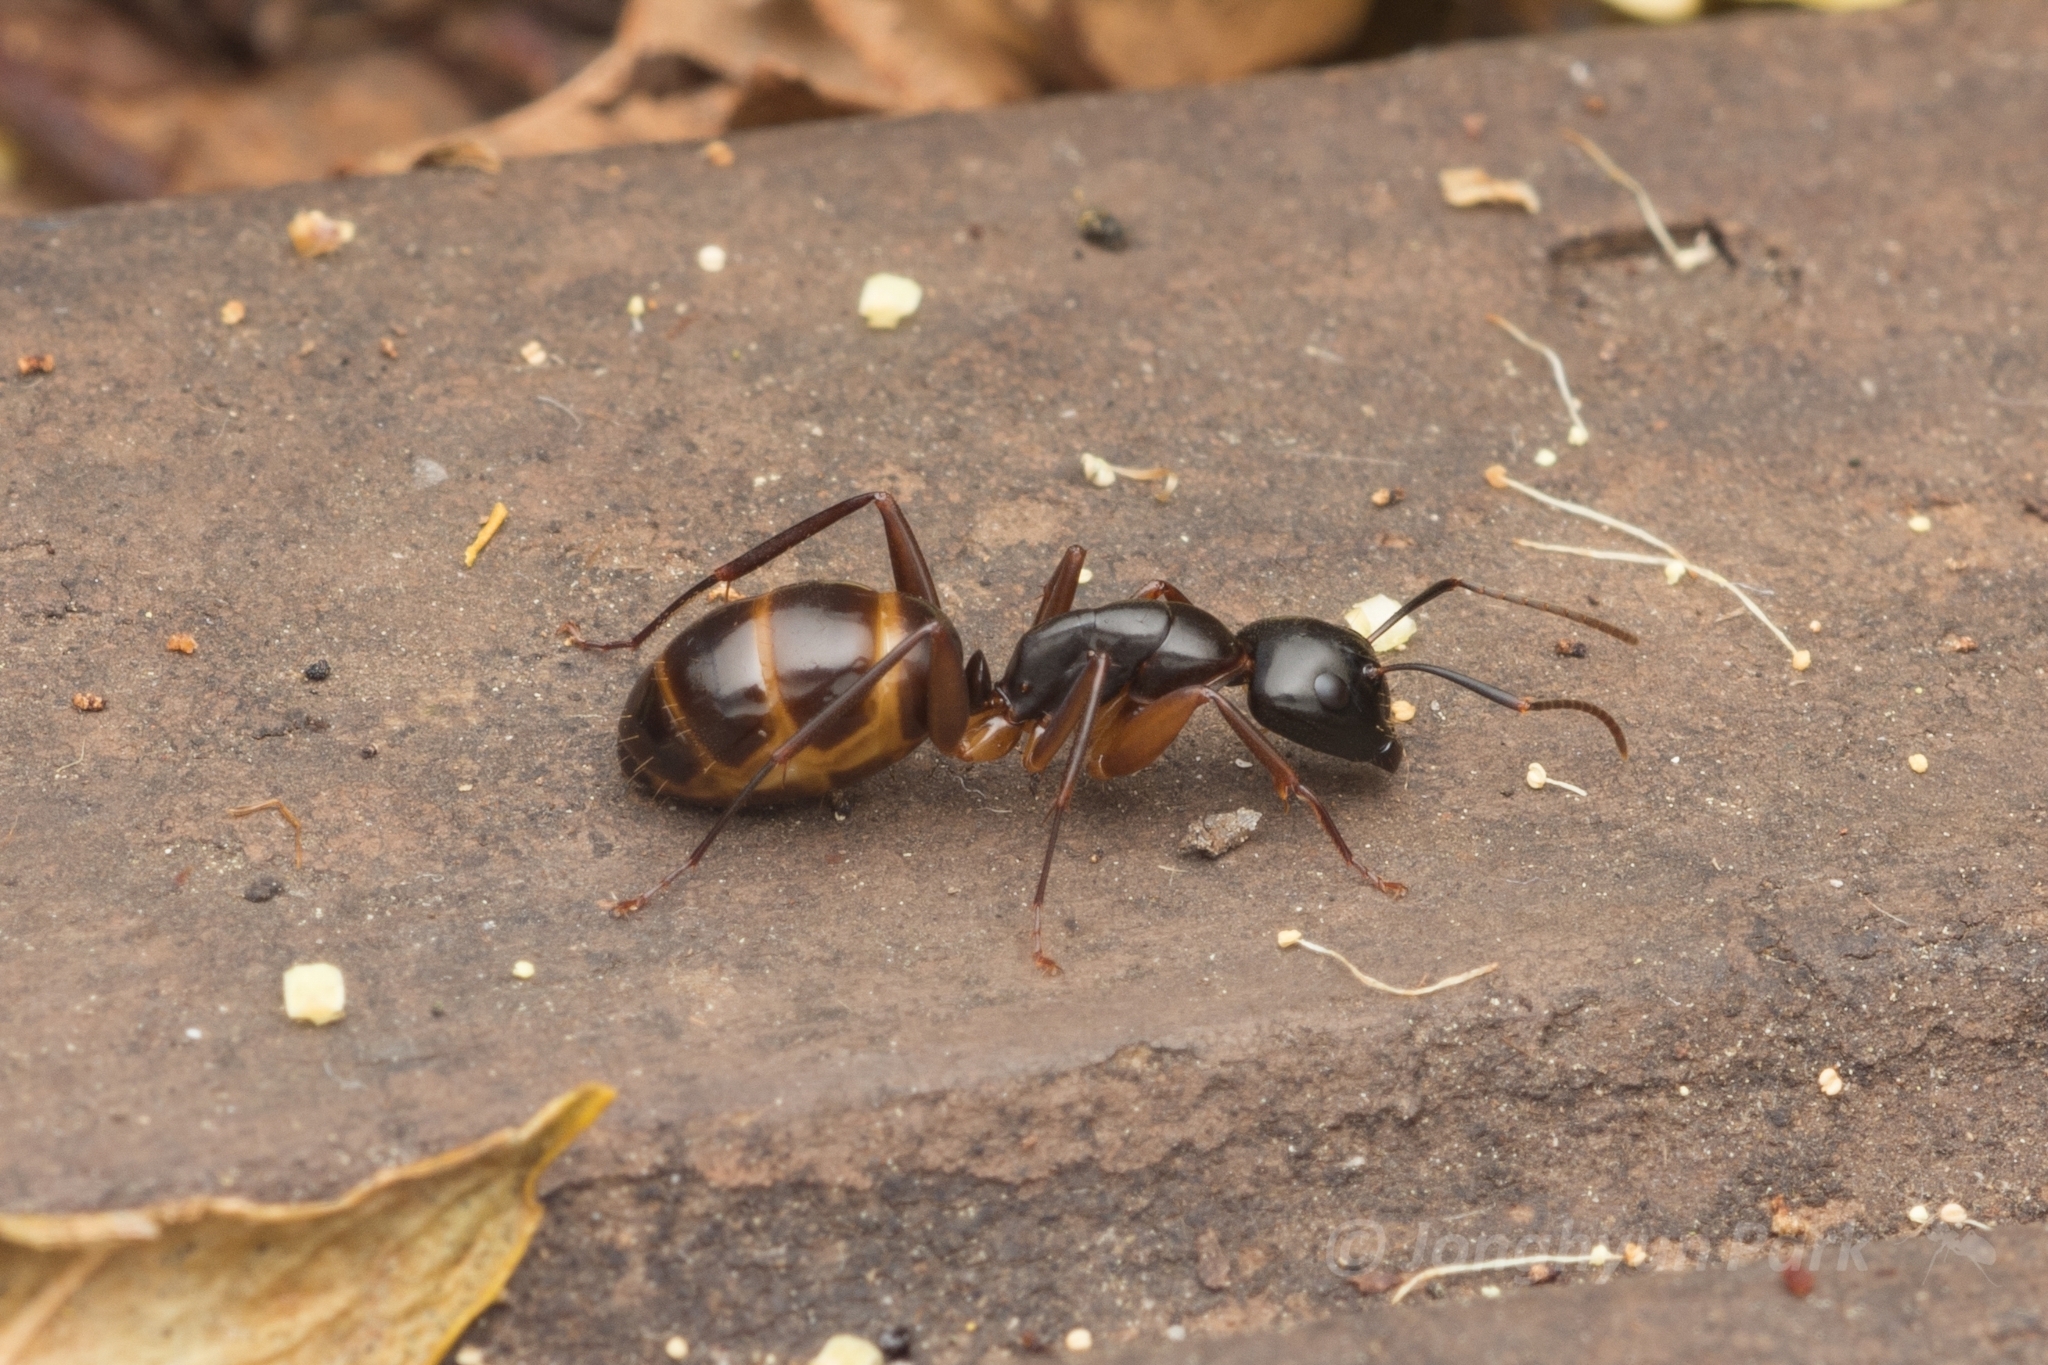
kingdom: Animalia
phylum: Arthropoda
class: Insecta
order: Hymenoptera
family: Formicidae
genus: Camponotus
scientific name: Camponotus kiusiuensis
